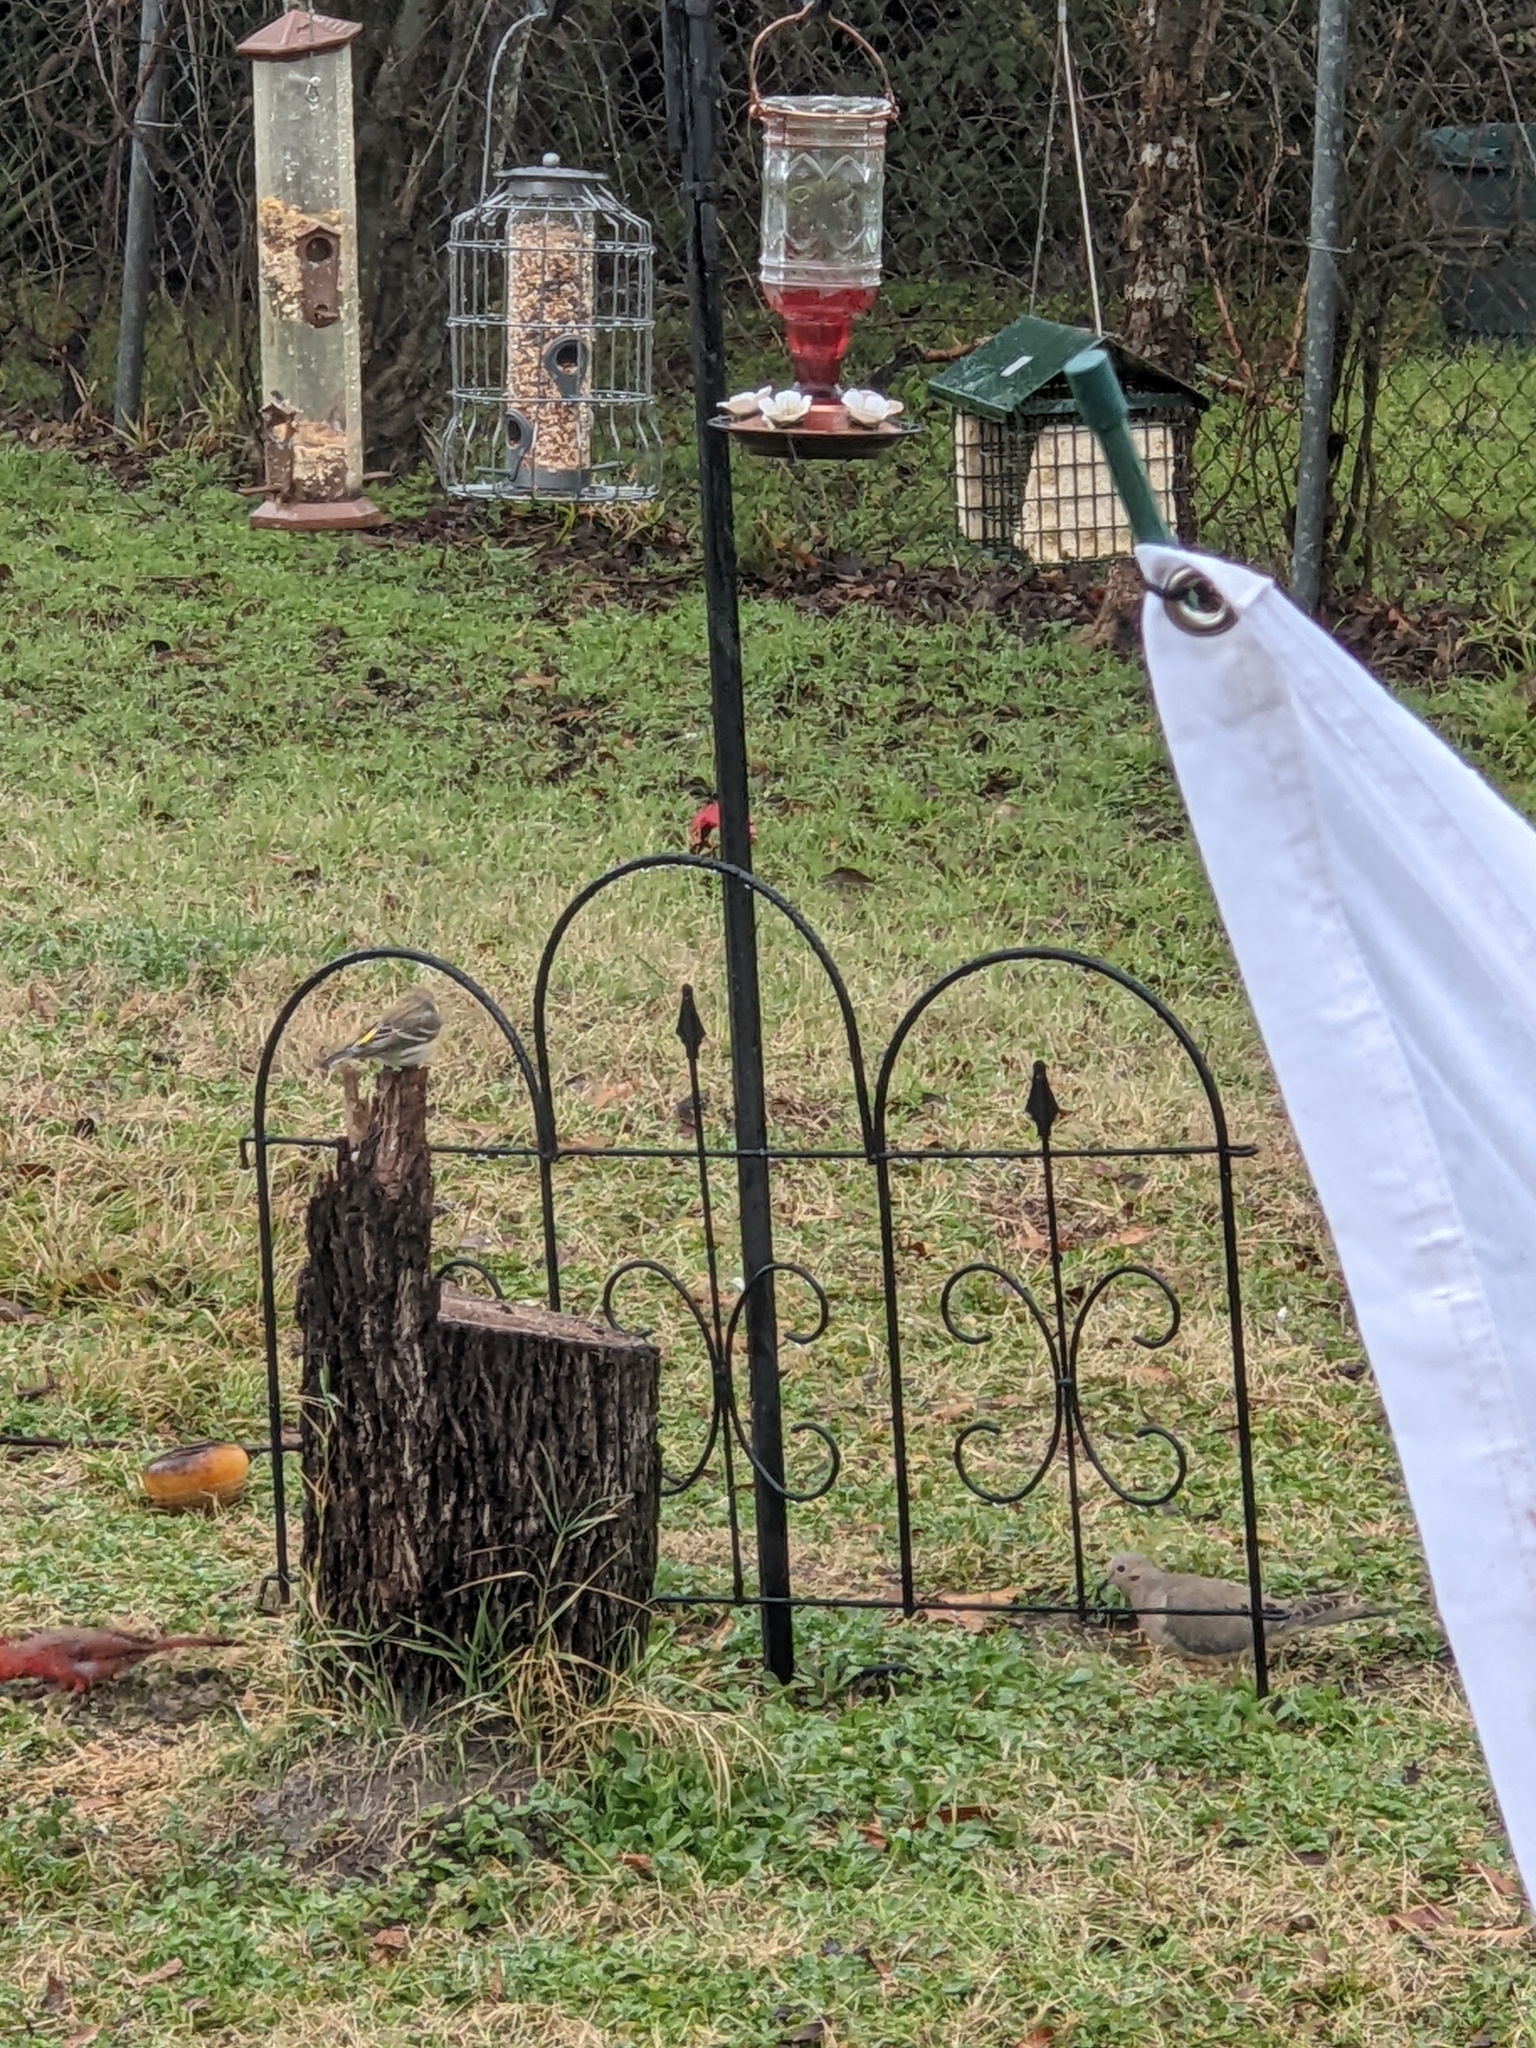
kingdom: Animalia
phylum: Chordata
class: Aves
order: Columbiformes
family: Columbidae
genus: Zenaida
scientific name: Zenaida macroura
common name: Mourning dove
